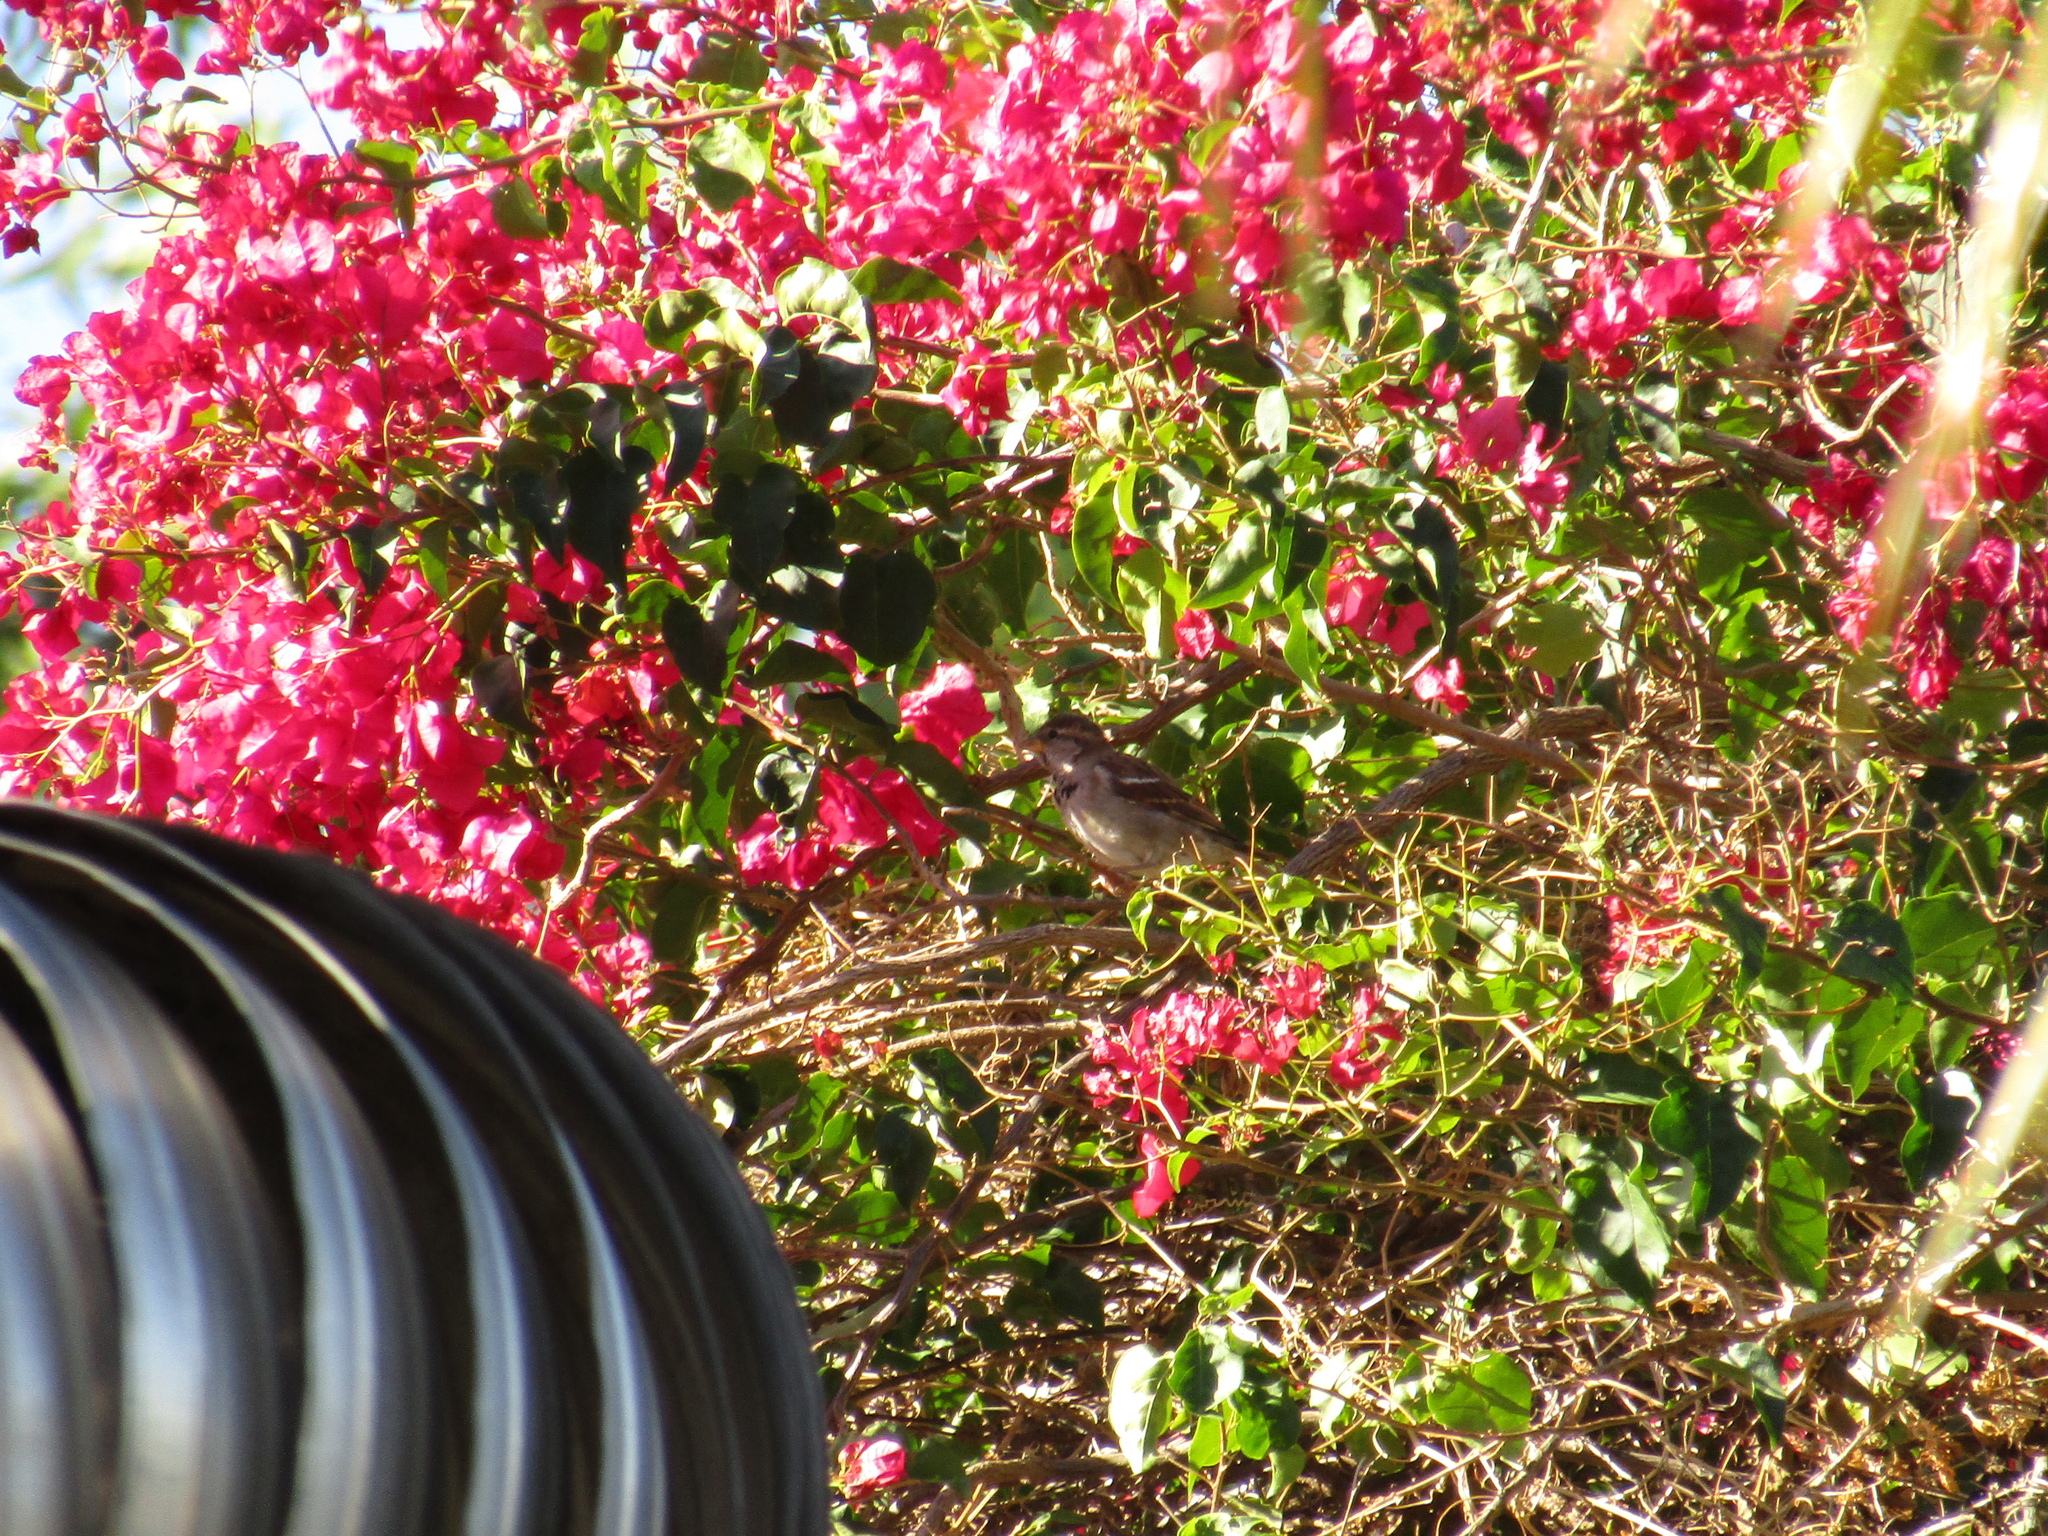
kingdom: Animalia
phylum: Chordata
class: Aves
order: Passeriformes
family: Passeridae
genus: Passer
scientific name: Passer domesticus
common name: House sparrow
